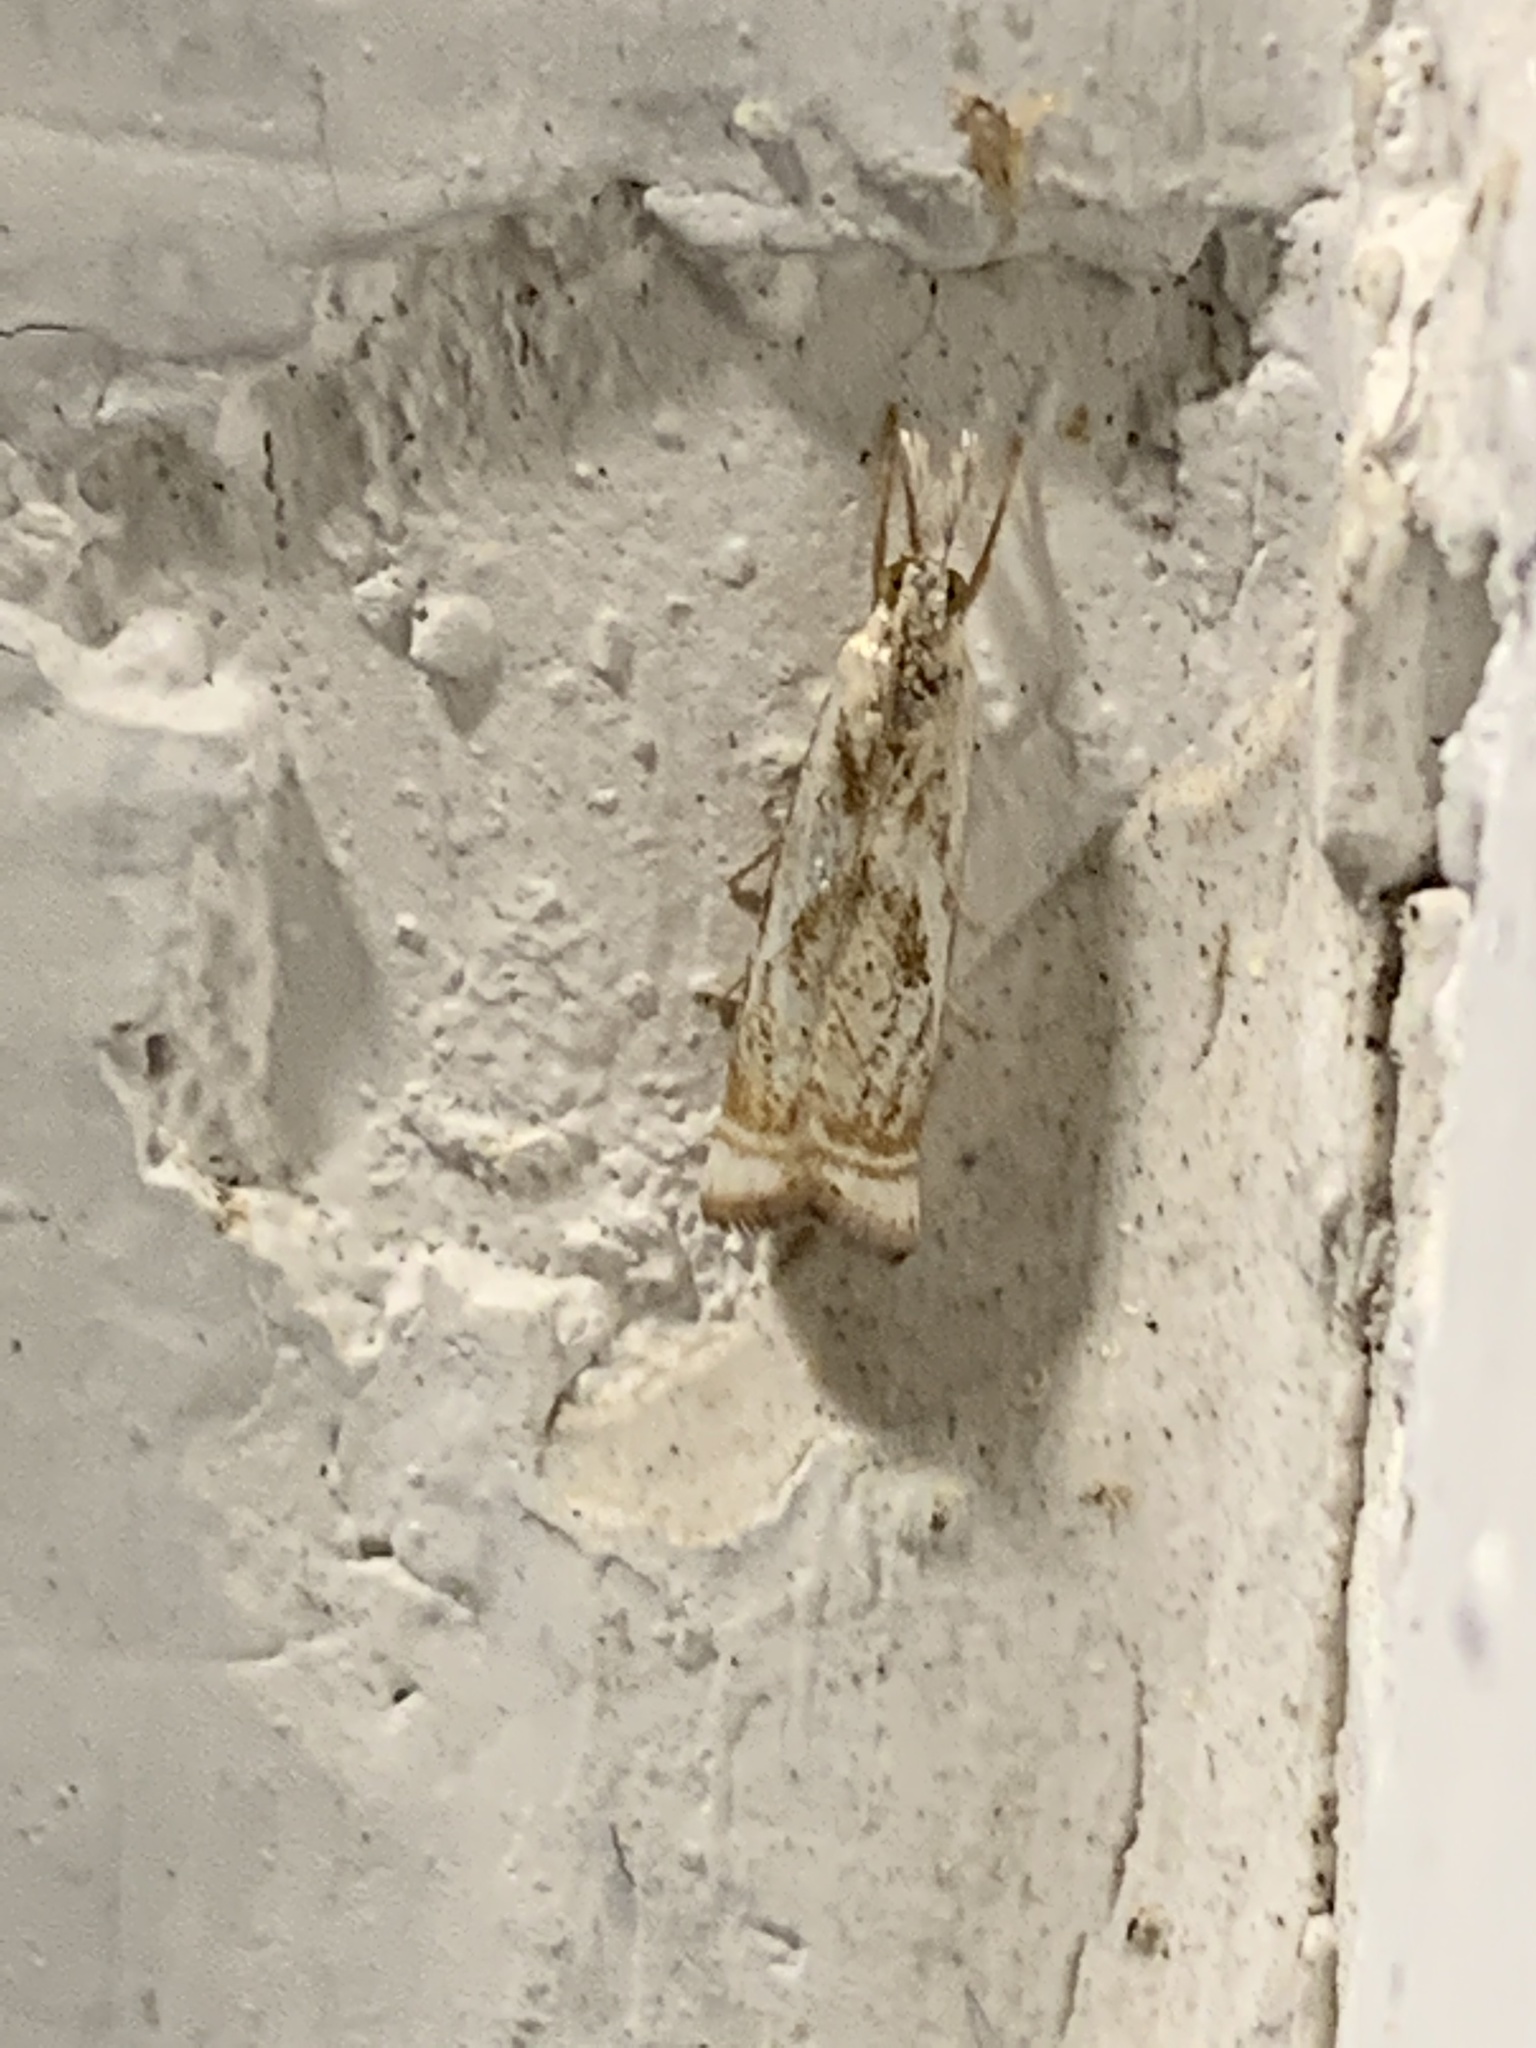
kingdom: Animalia
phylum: Arthropoda
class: Insecta
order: Lepidoptera
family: Crambidae
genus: Microcrambus
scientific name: Microcrambus elegans
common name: Elegant grass-veneer
